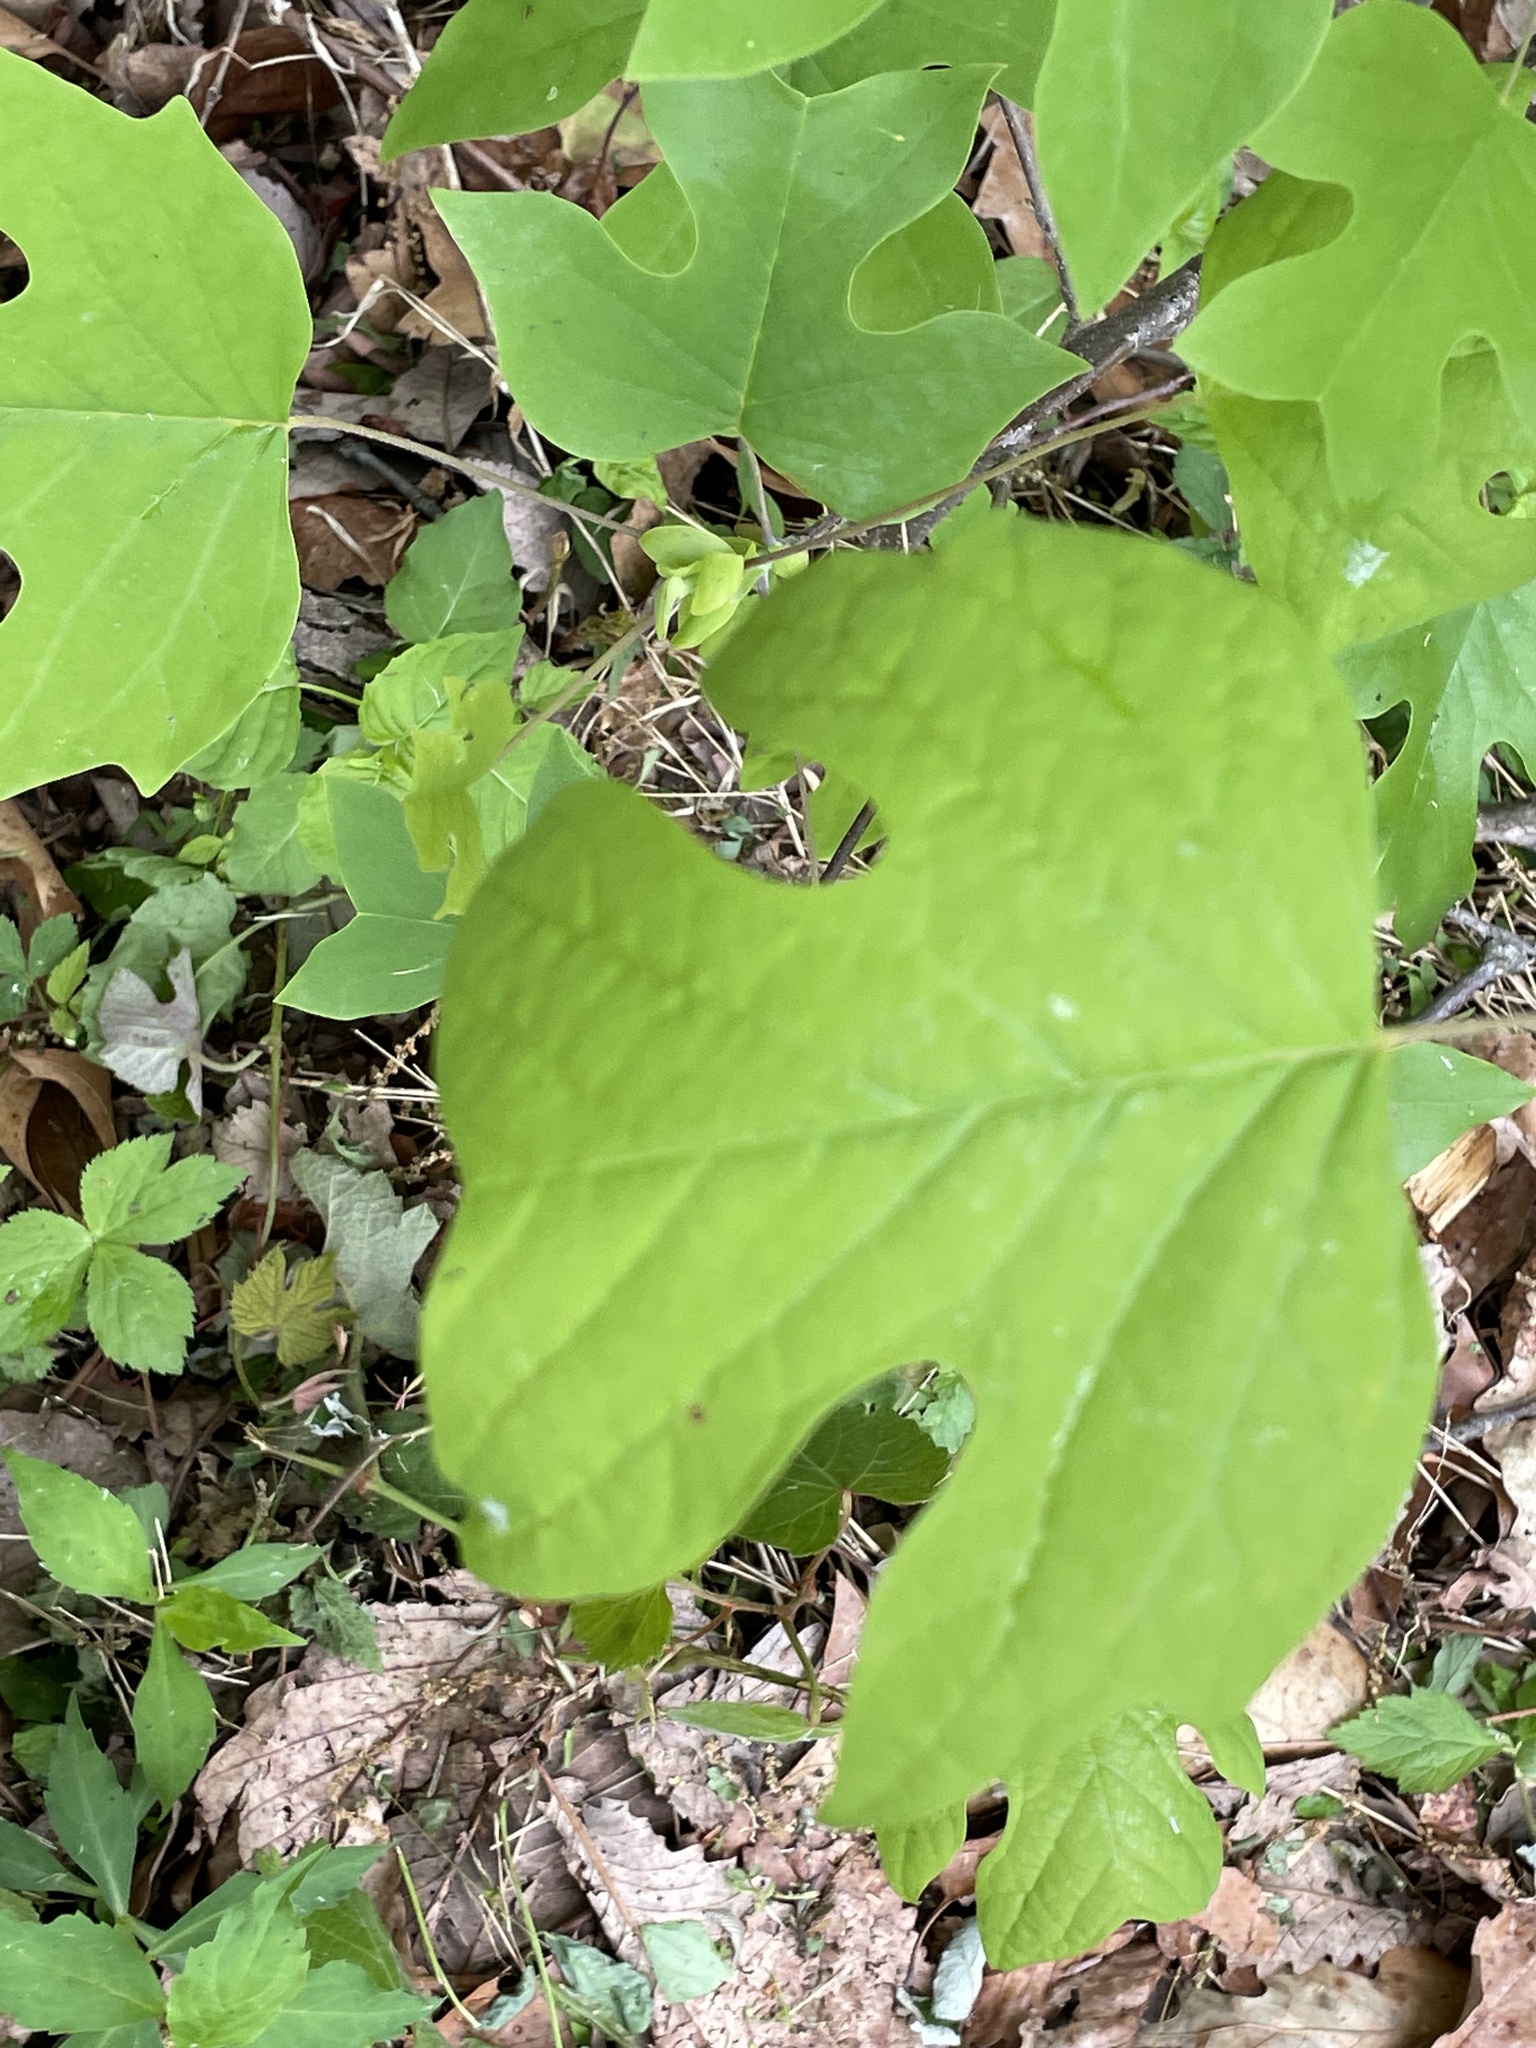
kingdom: Plantae
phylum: Tracheophyta
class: Magnoliopsida
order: Magnoliales
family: Magnoliaceae
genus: Liriodendron
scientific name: Liriodendron tulipifera
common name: Tulip tree
